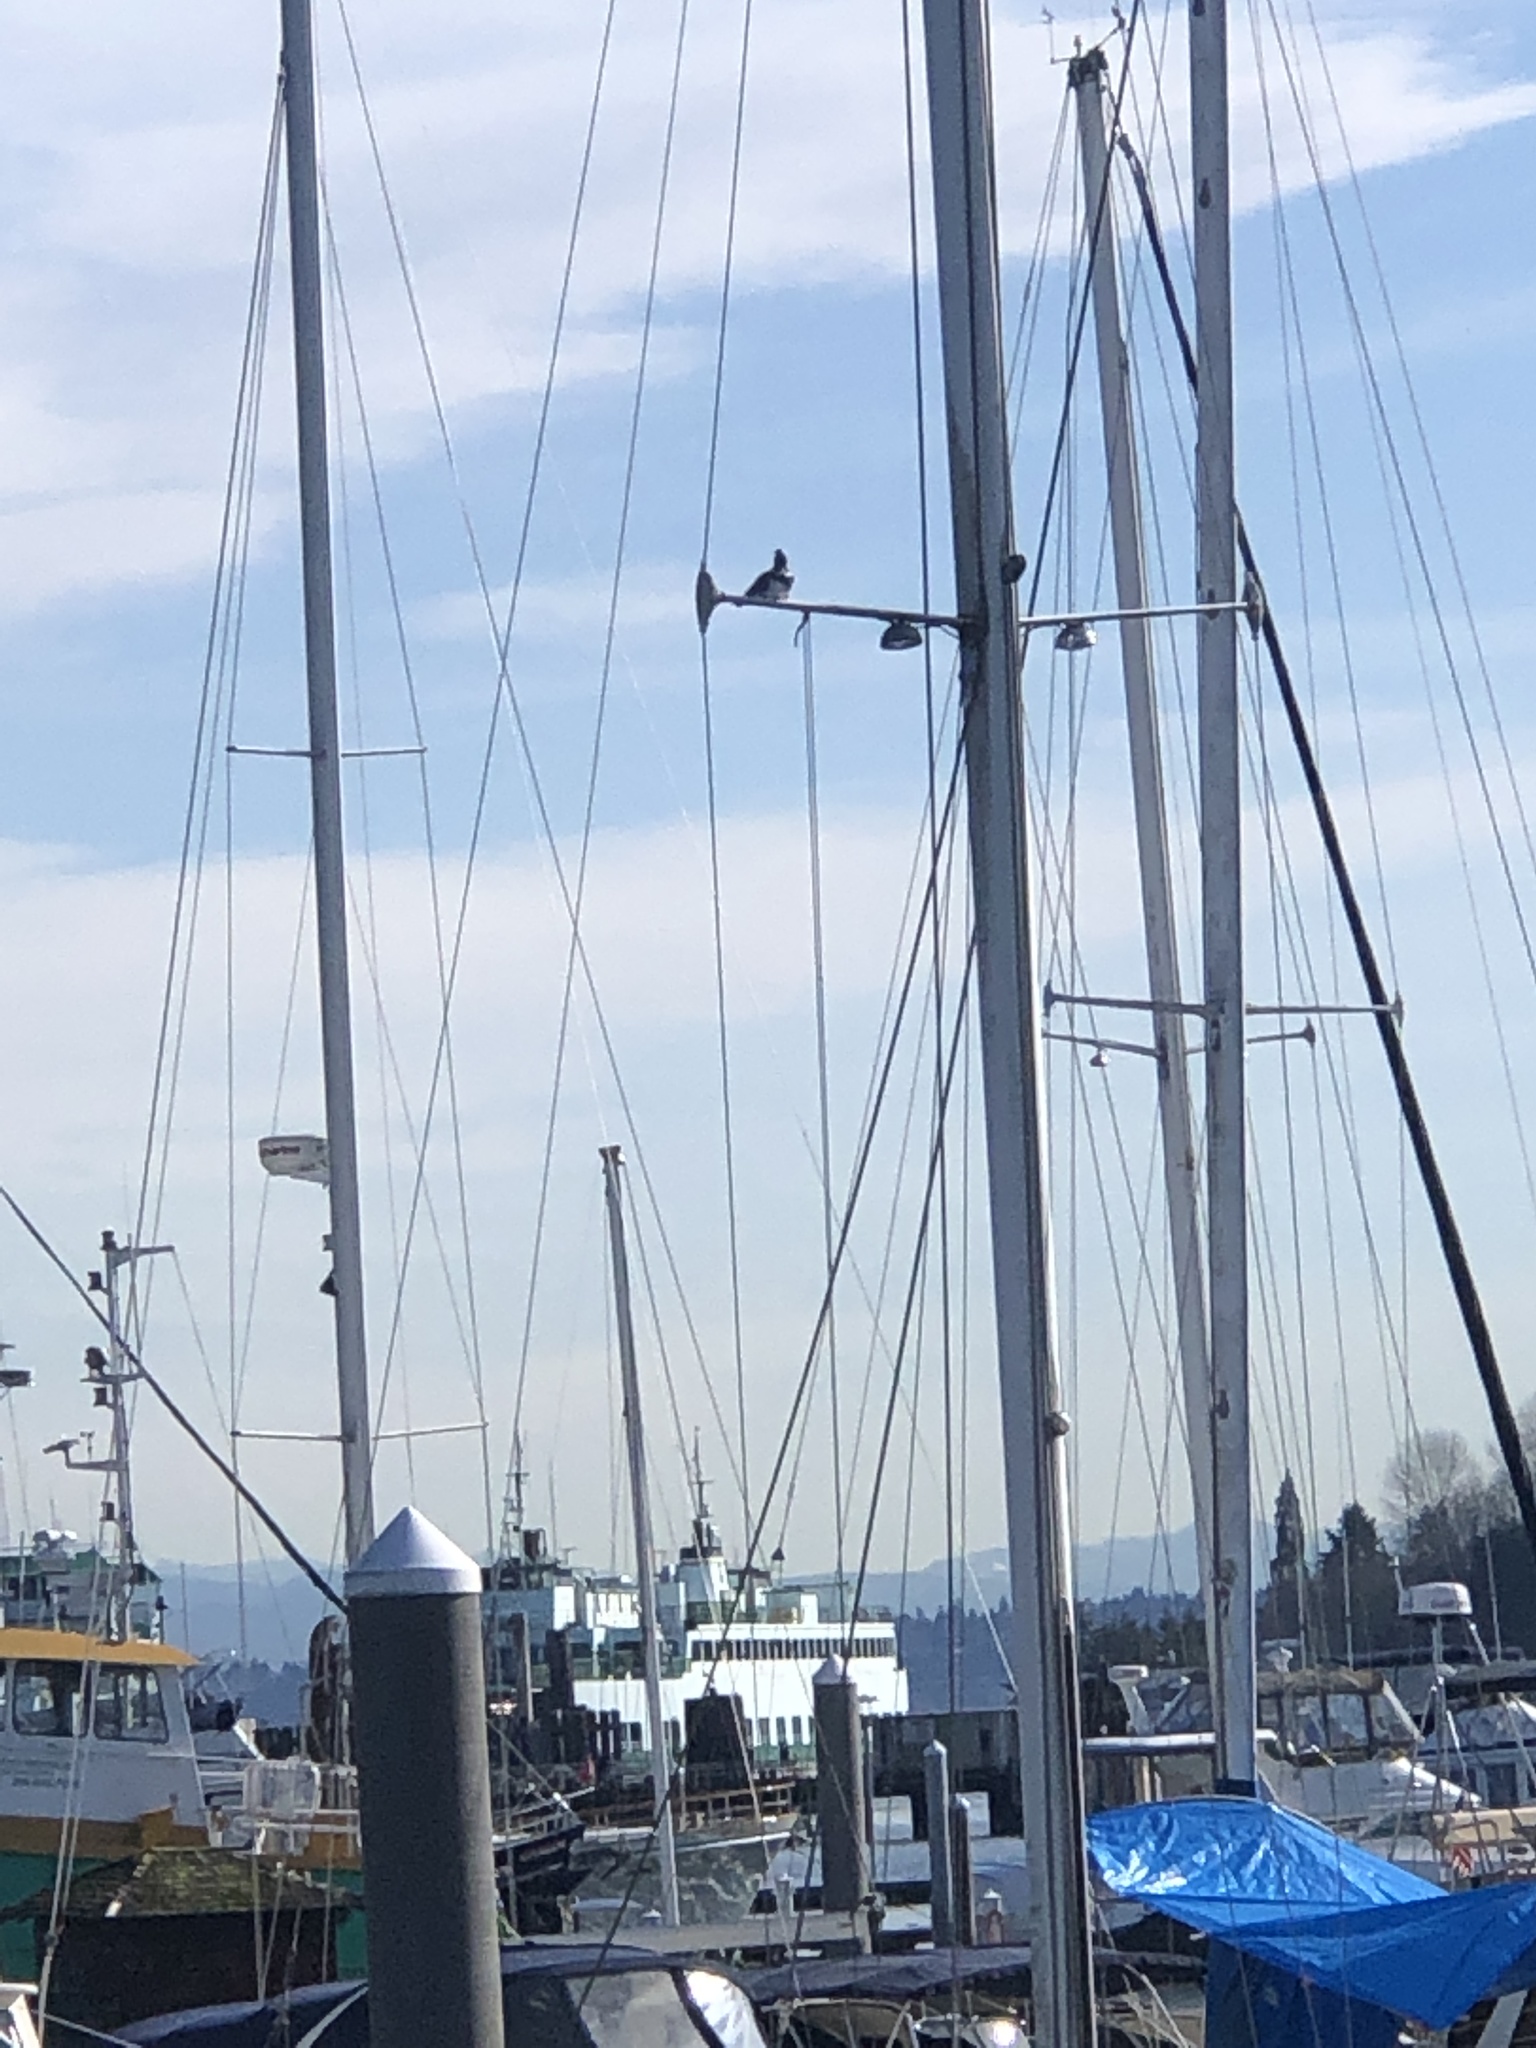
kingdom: Animalia
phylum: Chordata
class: Aves
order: Coraciiformes
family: Alcedinidae
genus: Megaceryle
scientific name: Megaceryle alcyon
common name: Belted kingfisher
